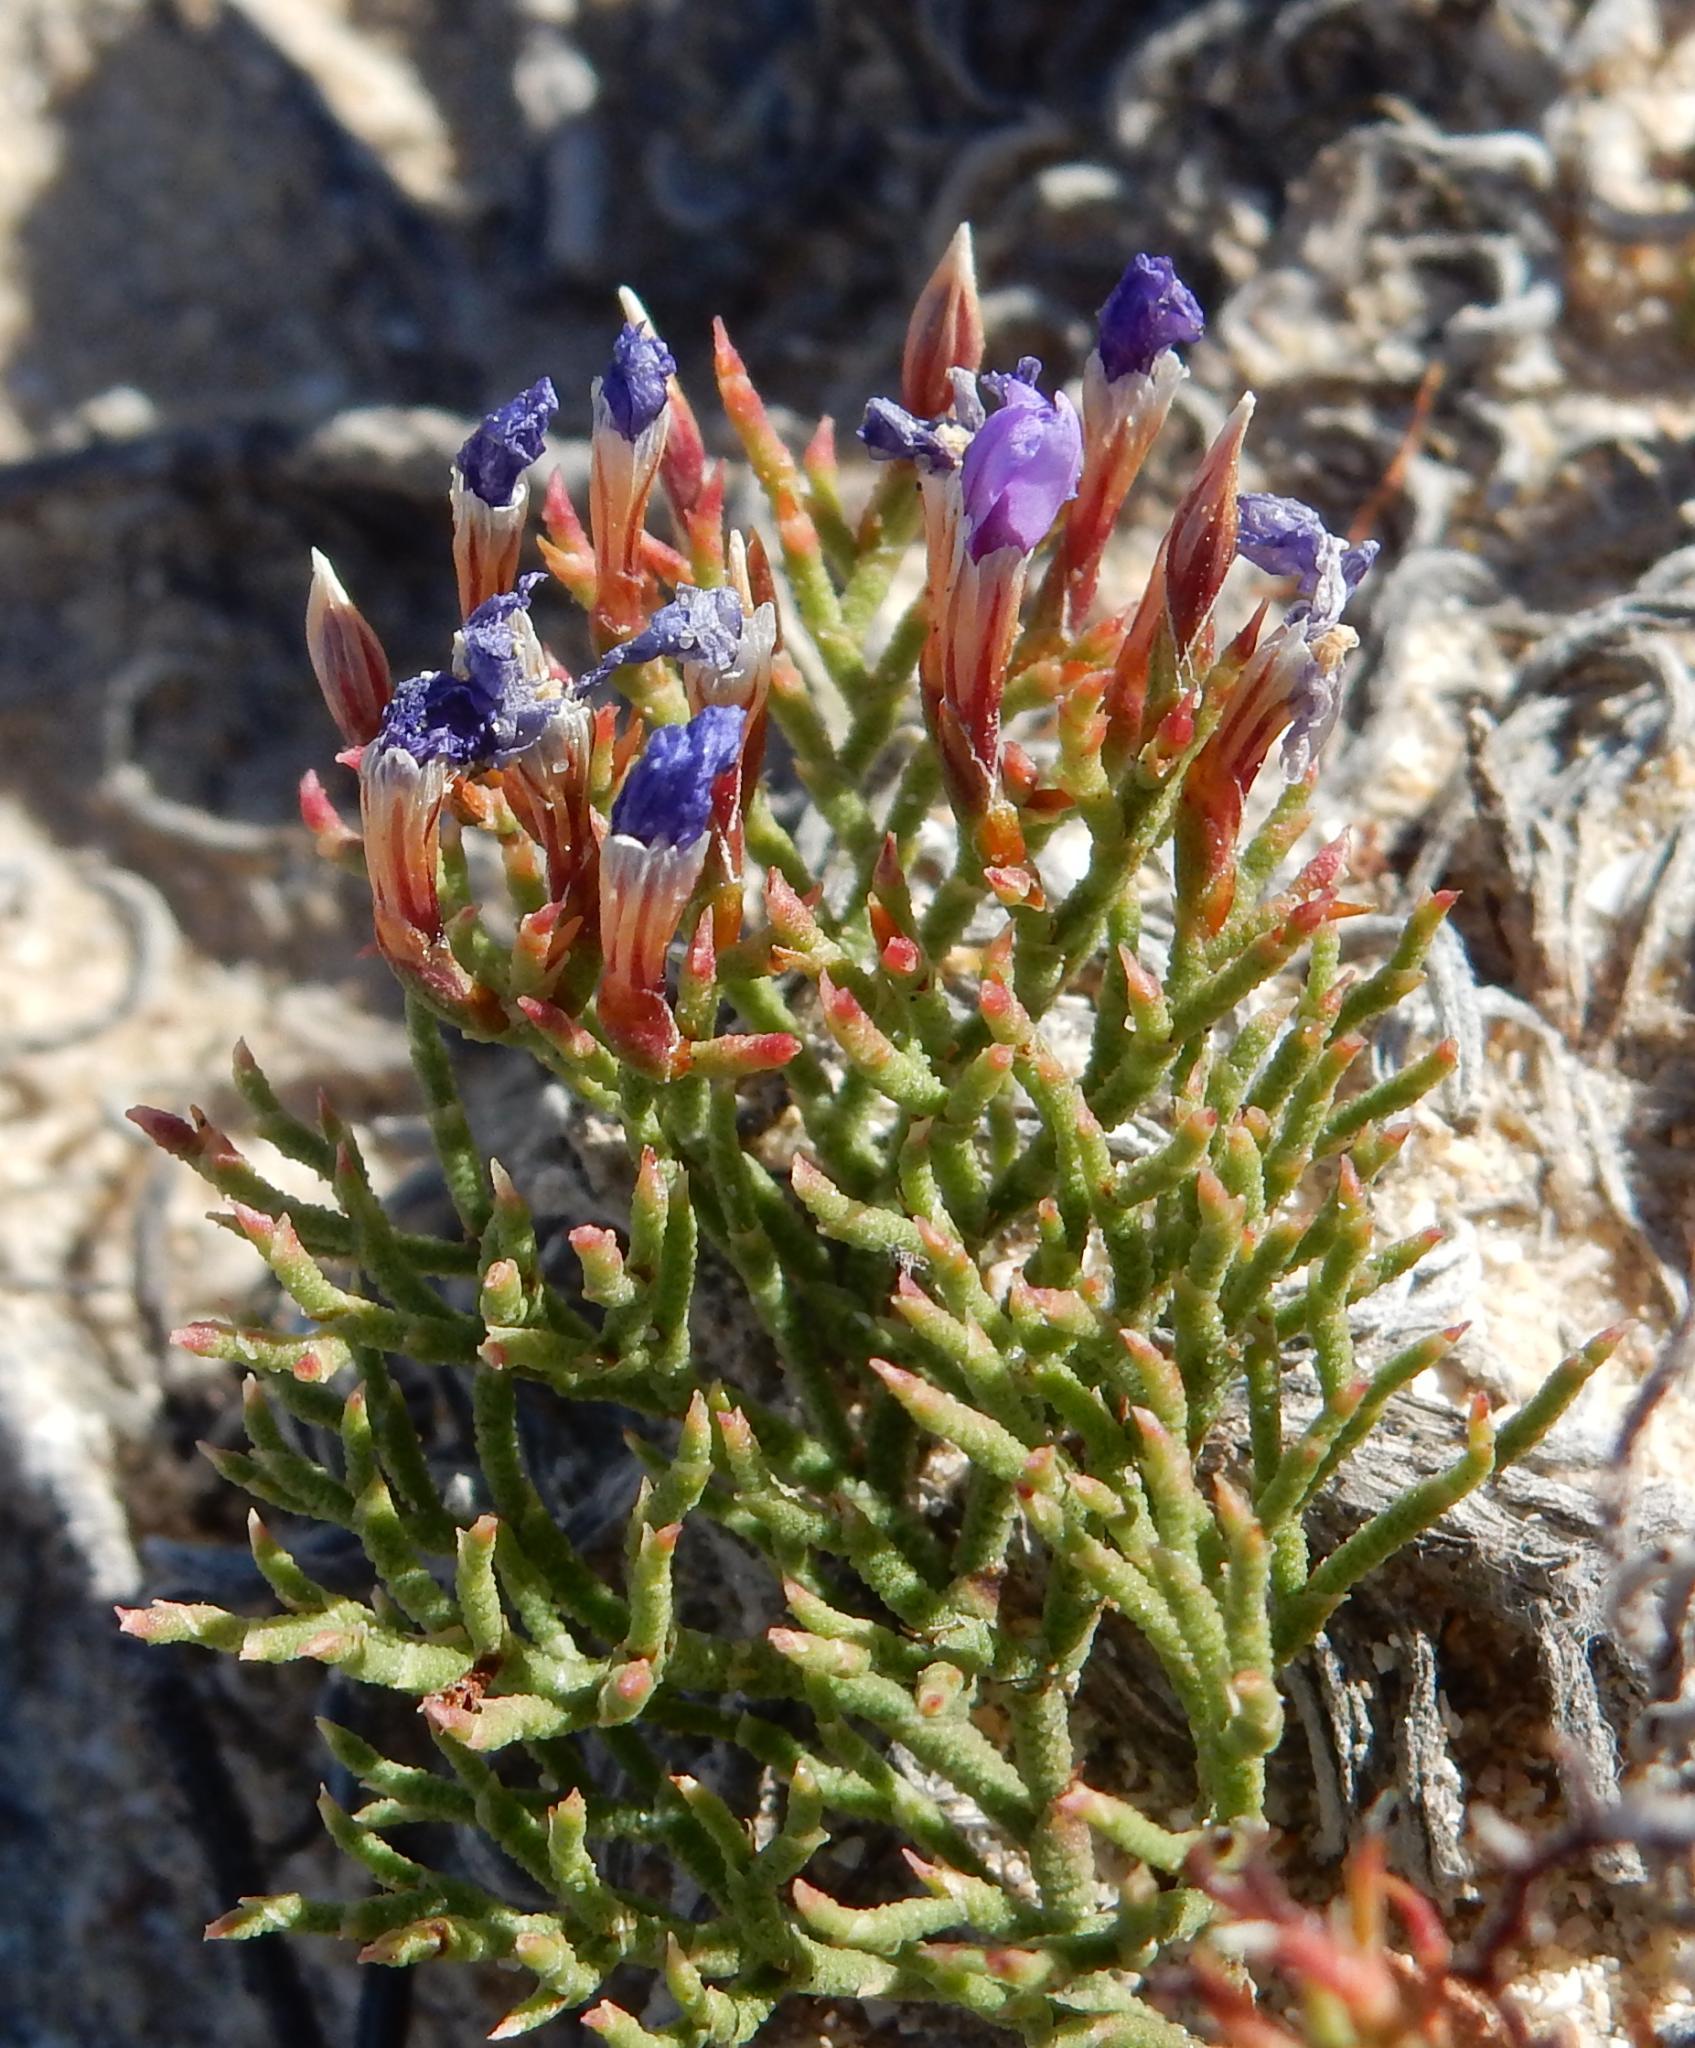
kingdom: Plantae
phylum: Tracheophyta
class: Magnoliopsida
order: Caryophyllales
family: Plumbaginaceae
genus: Limonium
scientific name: Limonium scabrum
